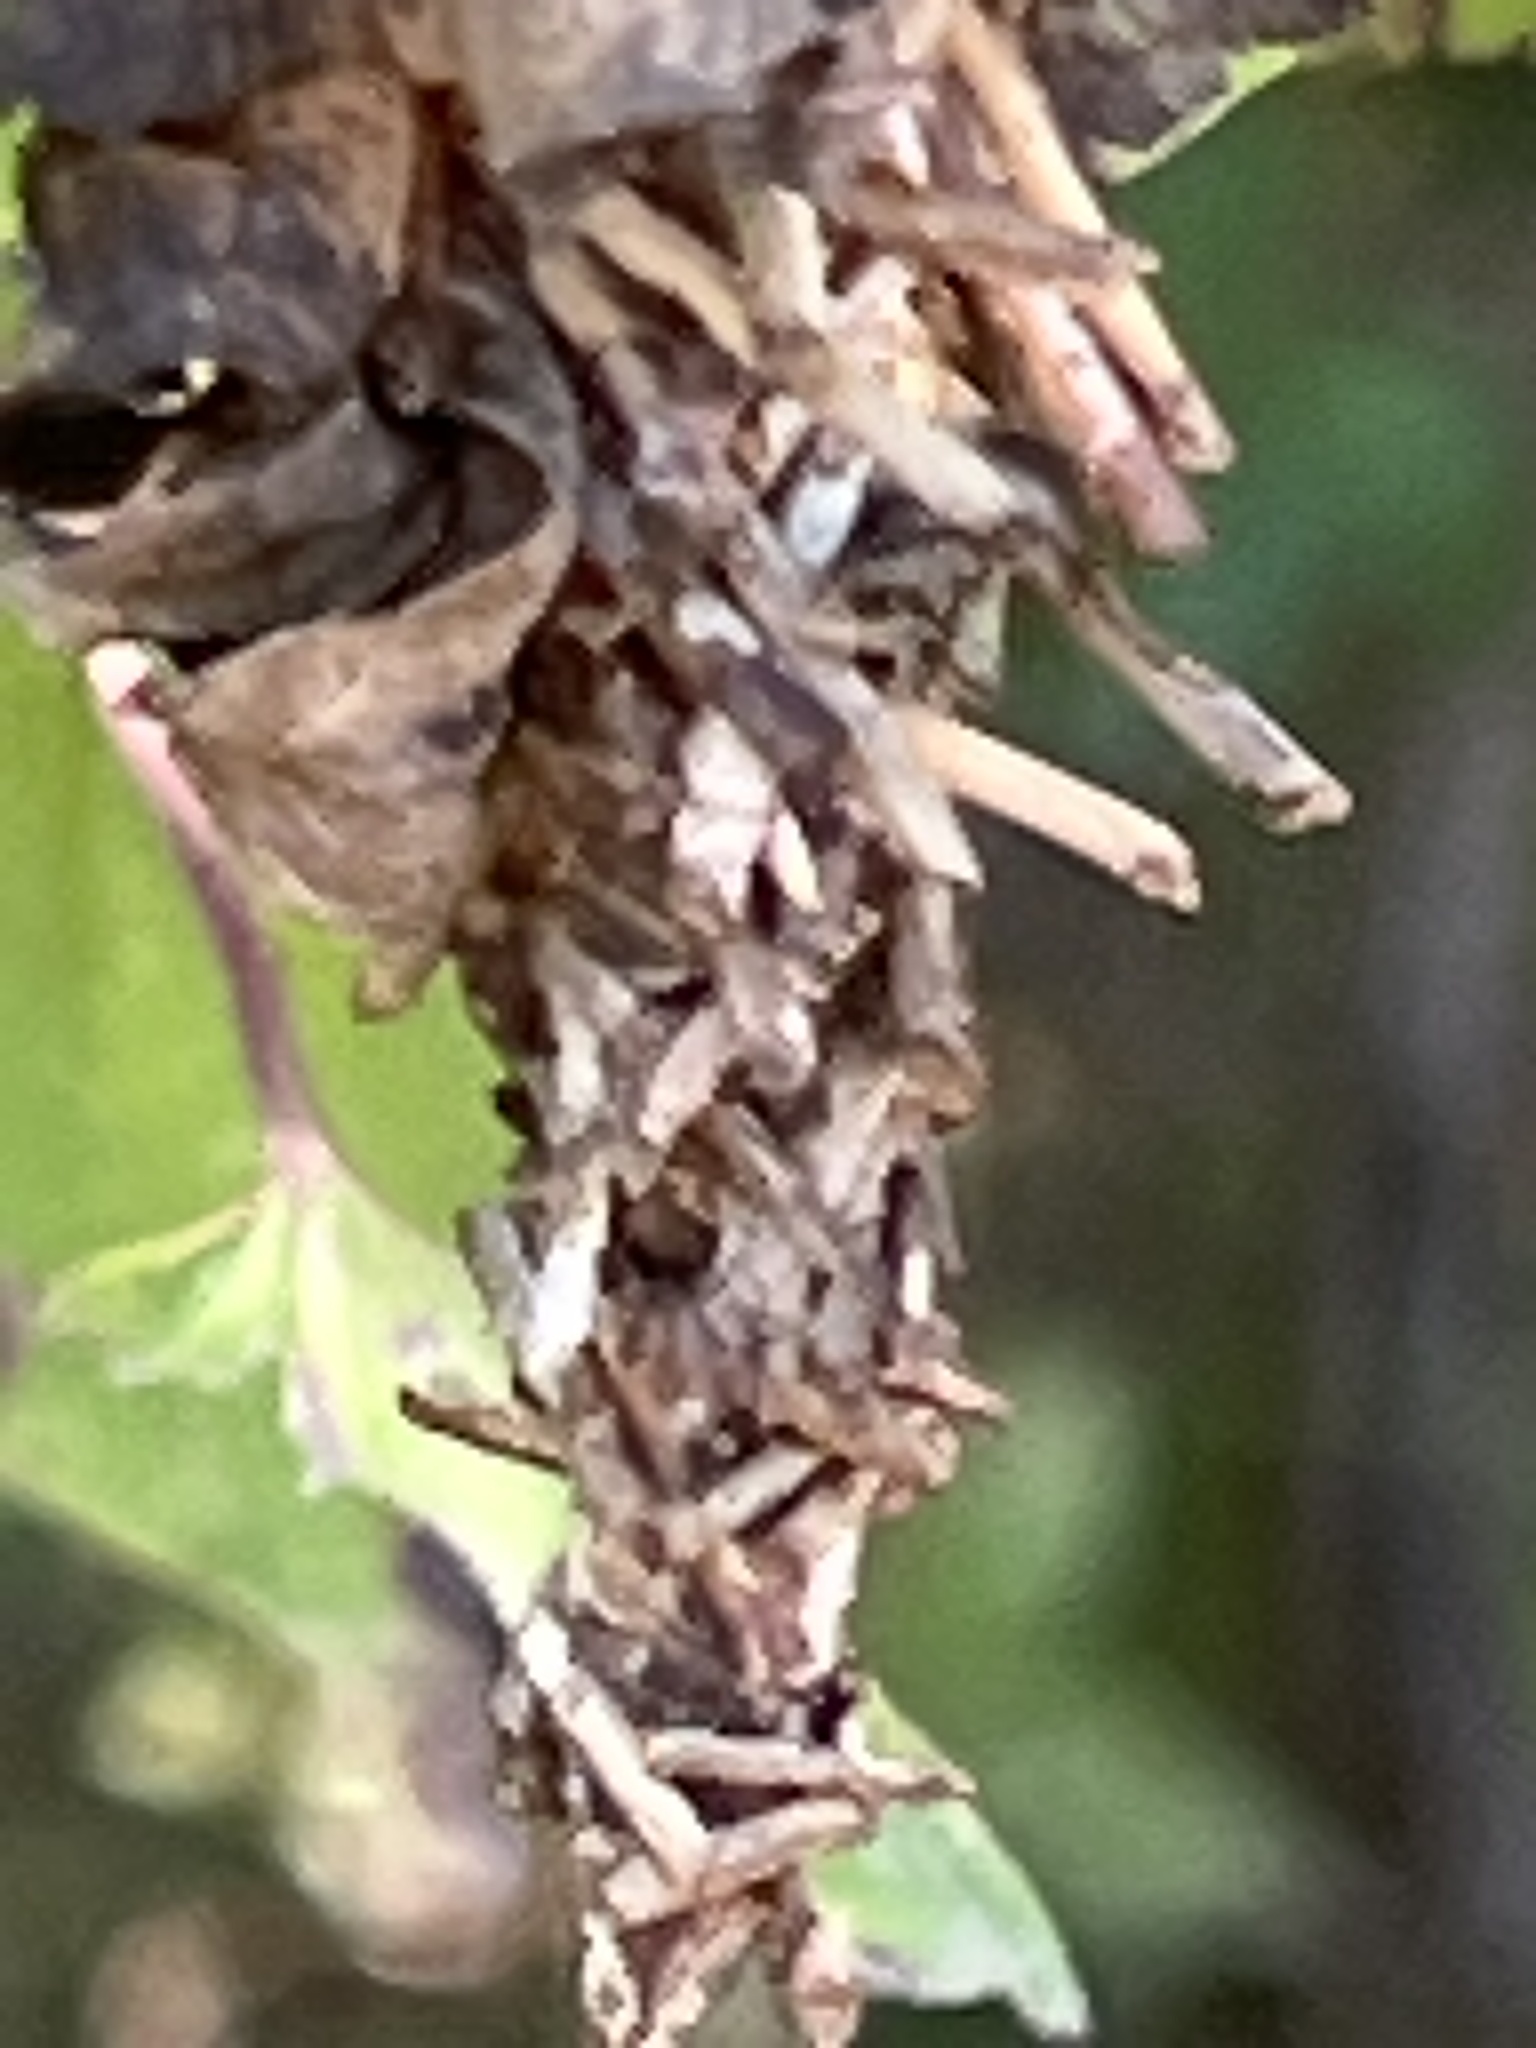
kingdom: Animalia
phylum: Arthropoda
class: Insecta
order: Lepidoptera
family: Psychidae
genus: Oiketicus
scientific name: Oiketicus
